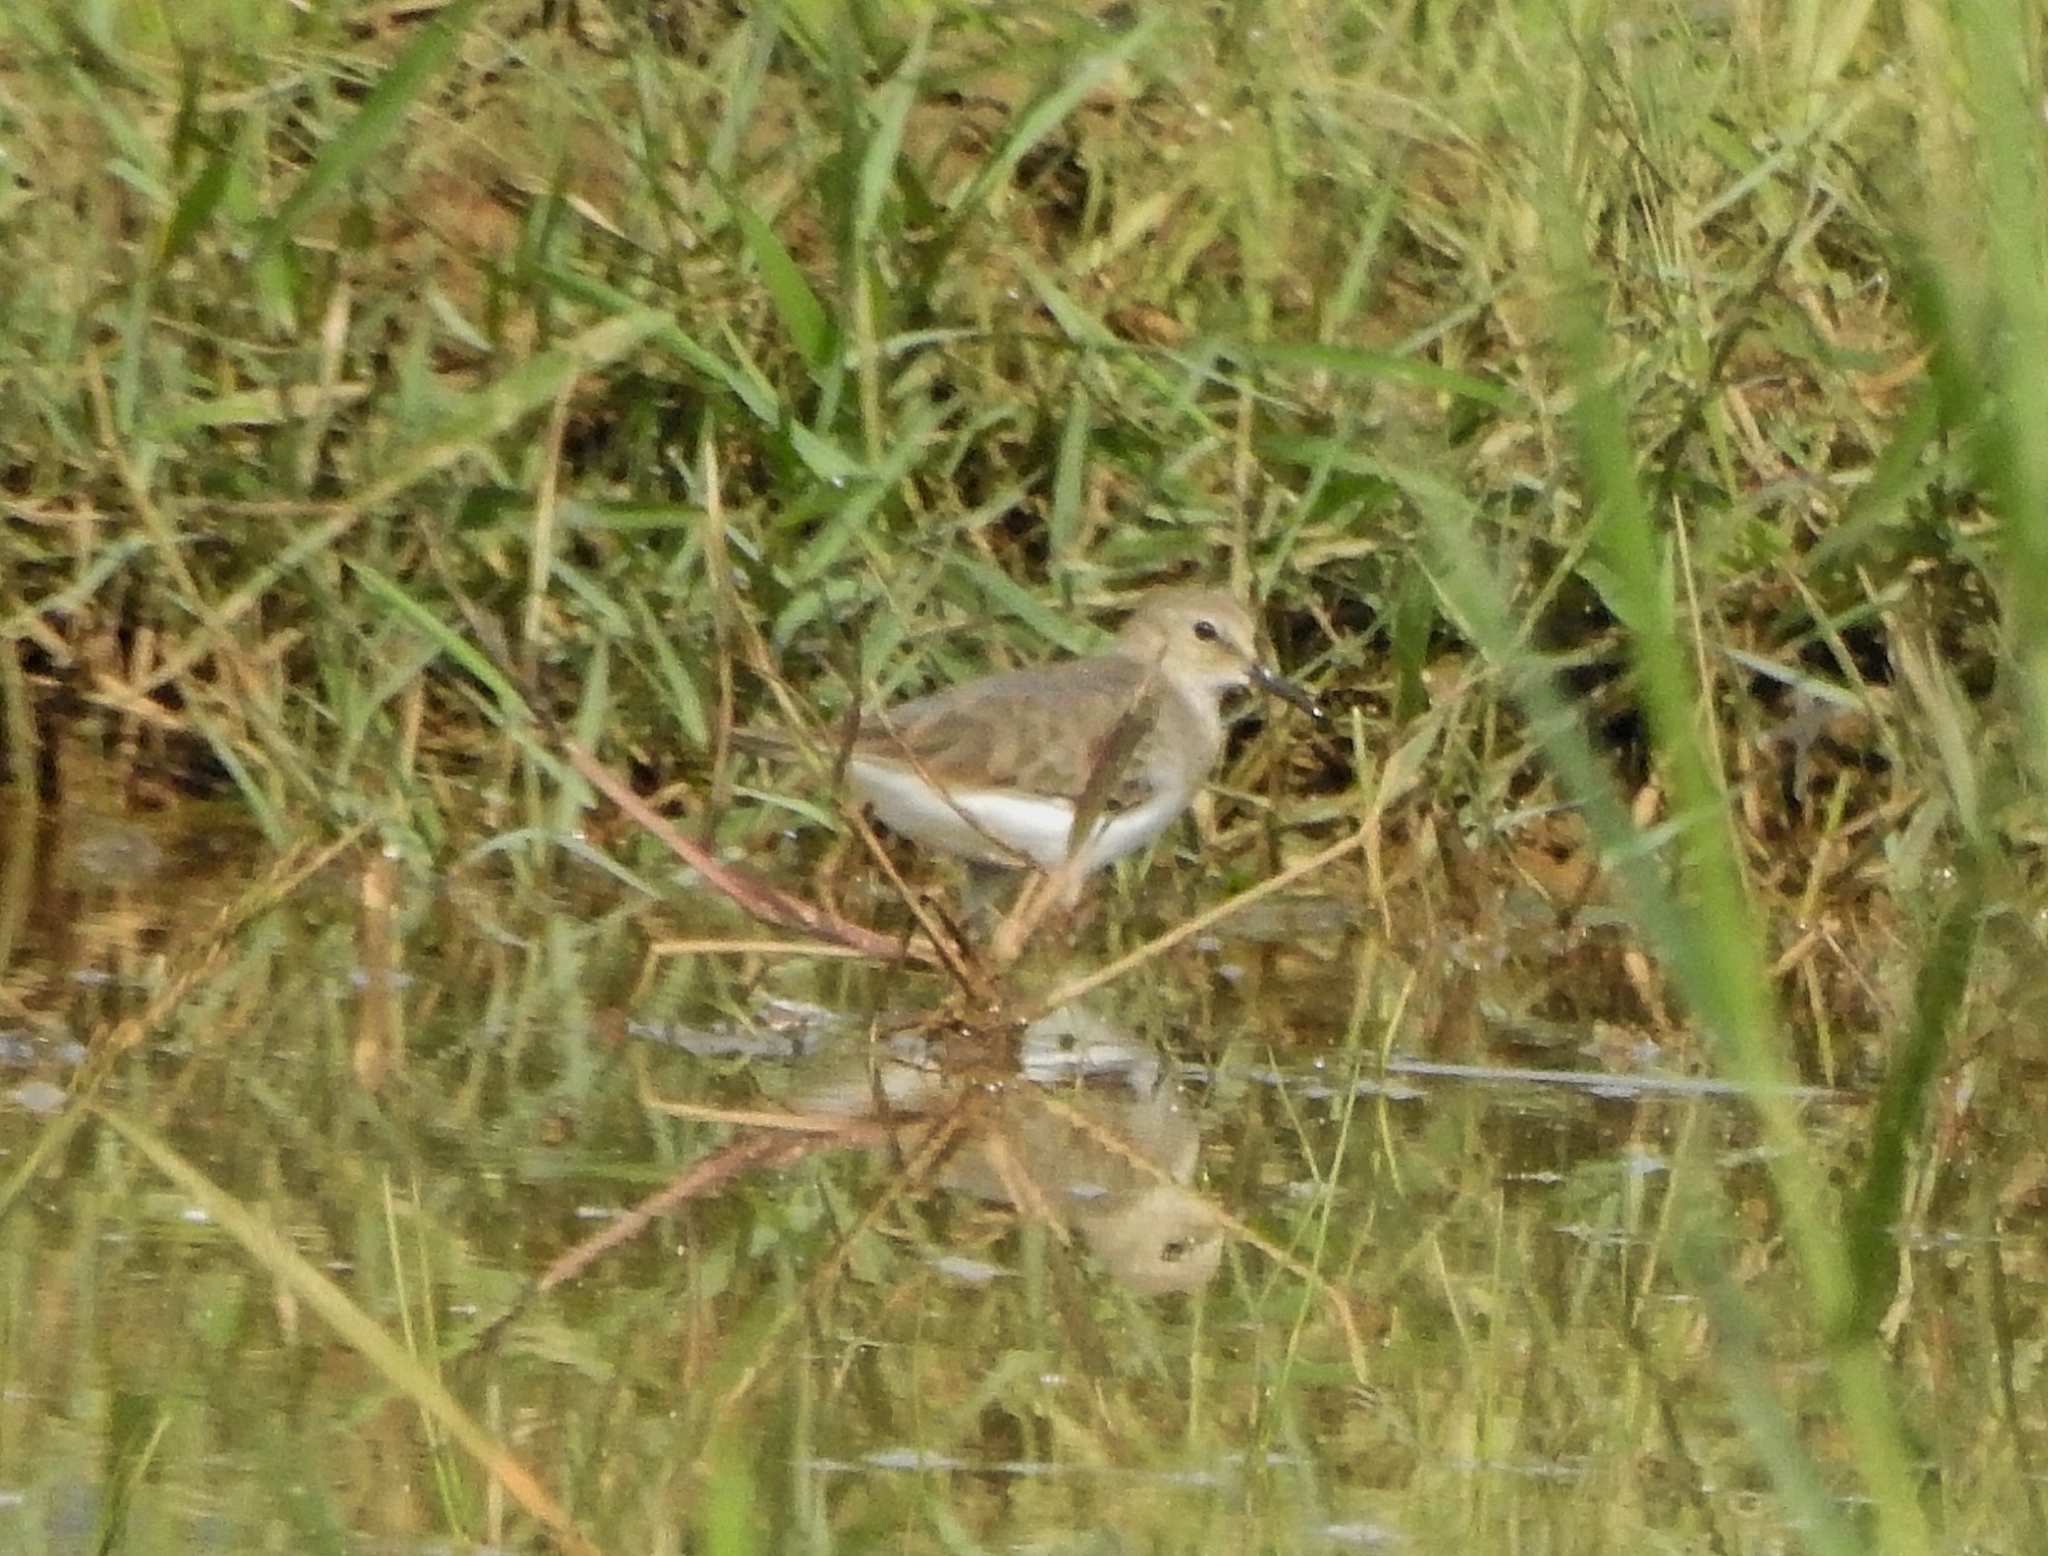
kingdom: Animalia
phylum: Chordata
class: Aves
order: Charadriiformes
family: Scolopacidae
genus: Calidris
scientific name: Calidris temminckii
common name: Temminck's stint
